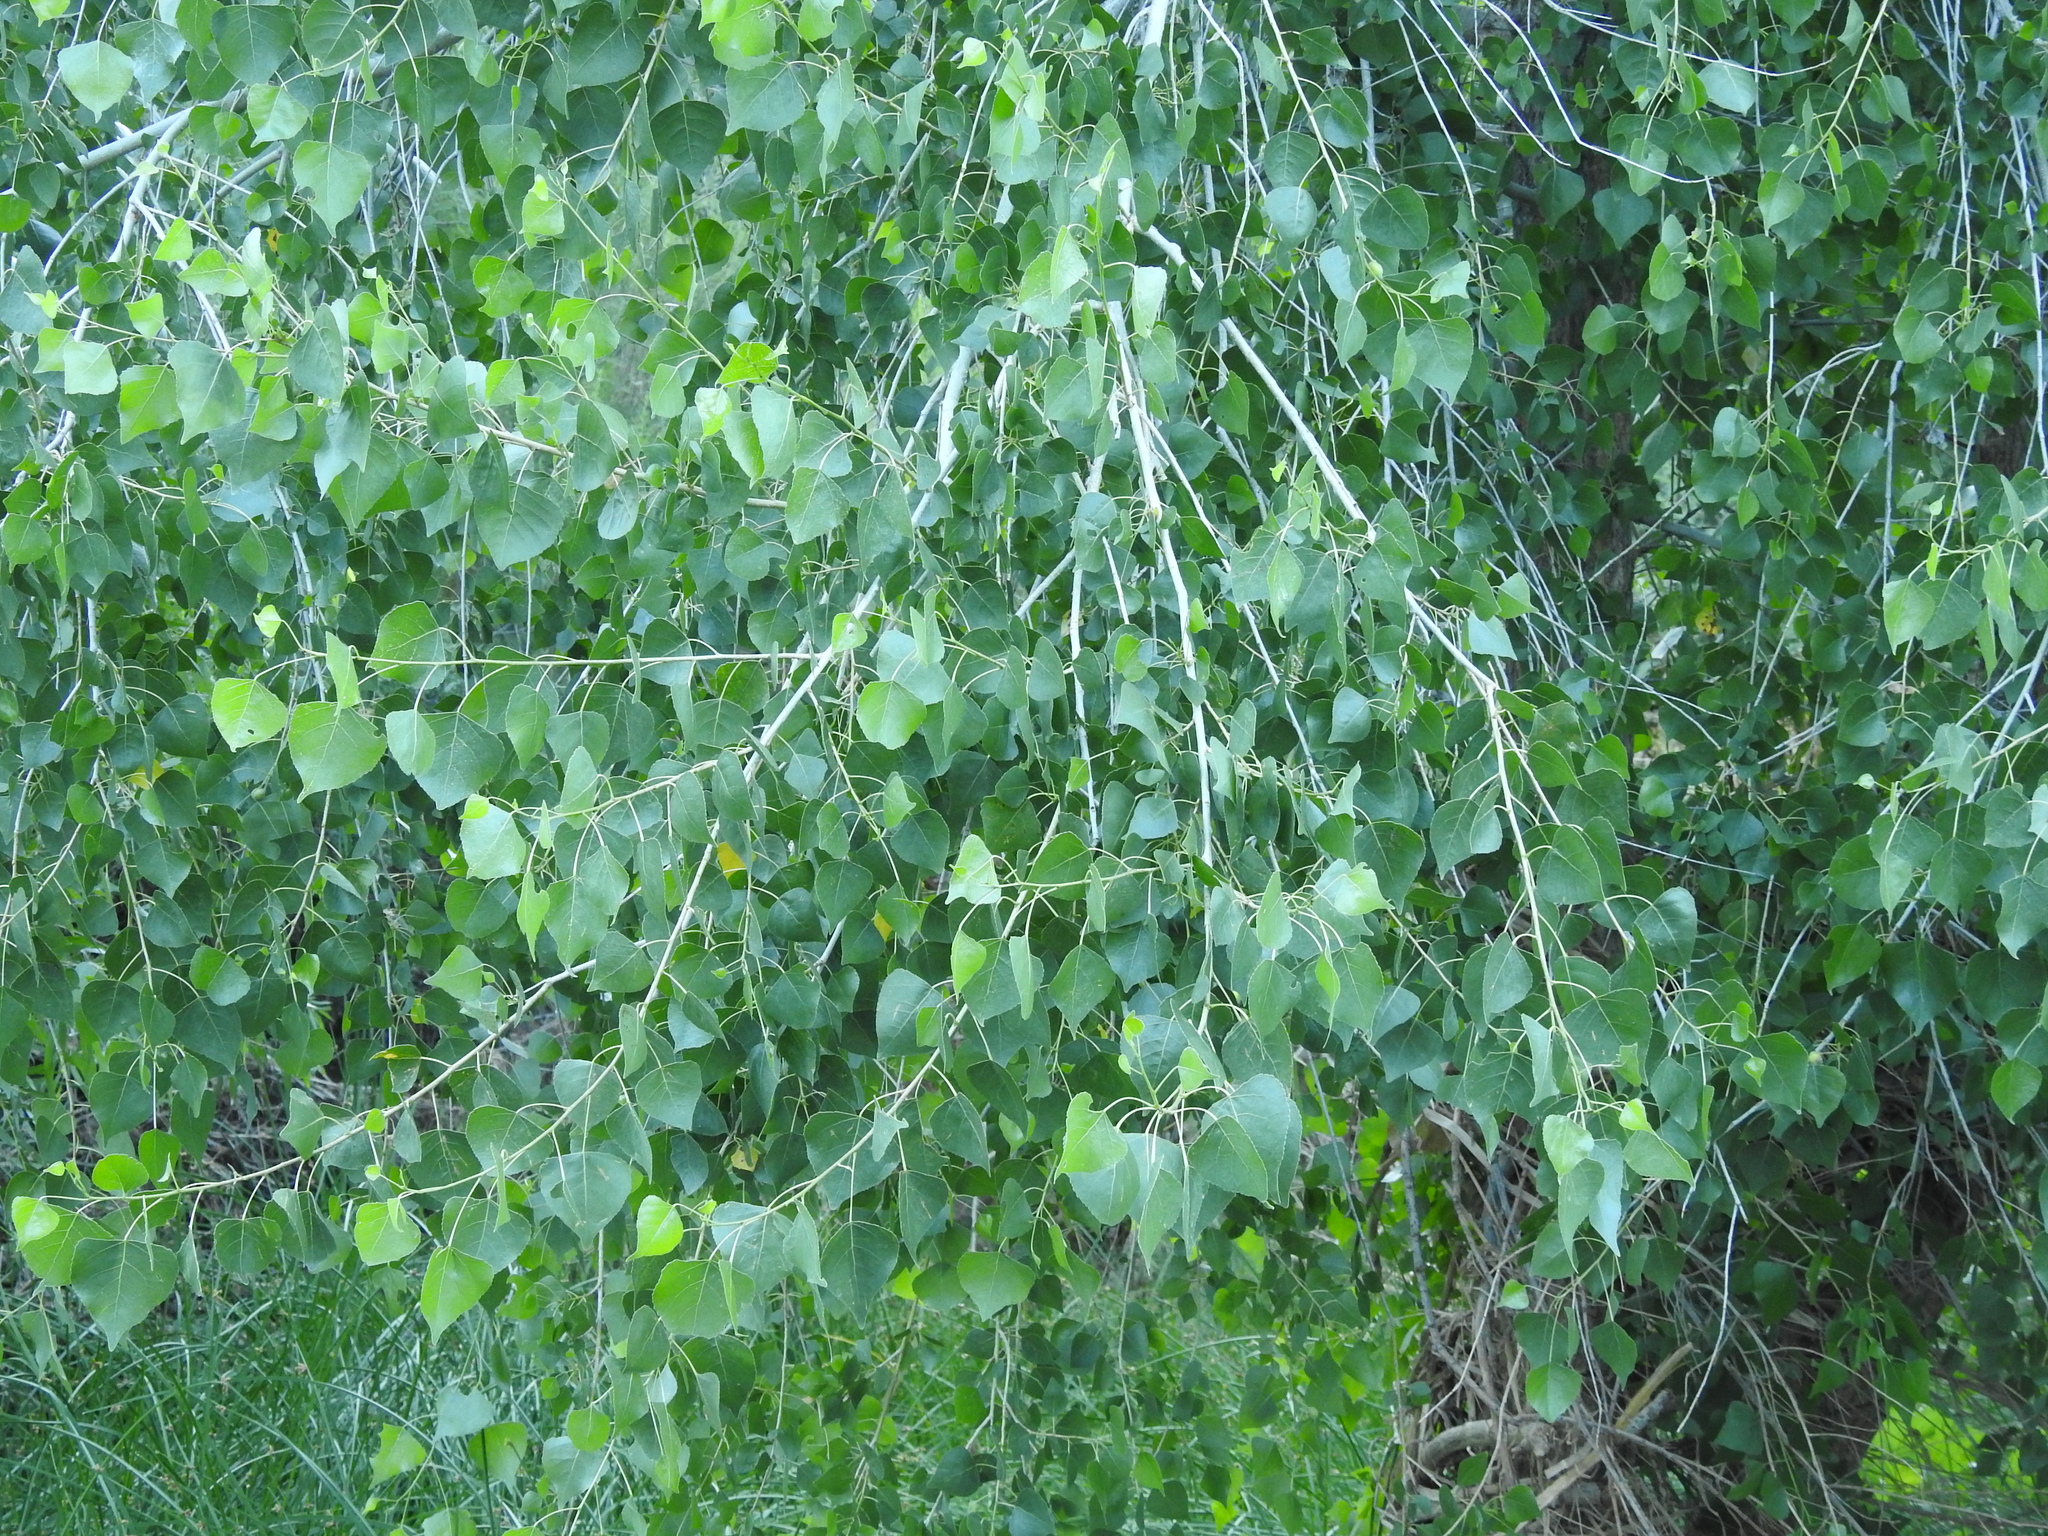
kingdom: Plantae
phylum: Tracheophyta
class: Magnoliopsida
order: Malpighiales
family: Salicaceae
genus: Populus
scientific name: Populus fremontii
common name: Fremont's cottonwood
